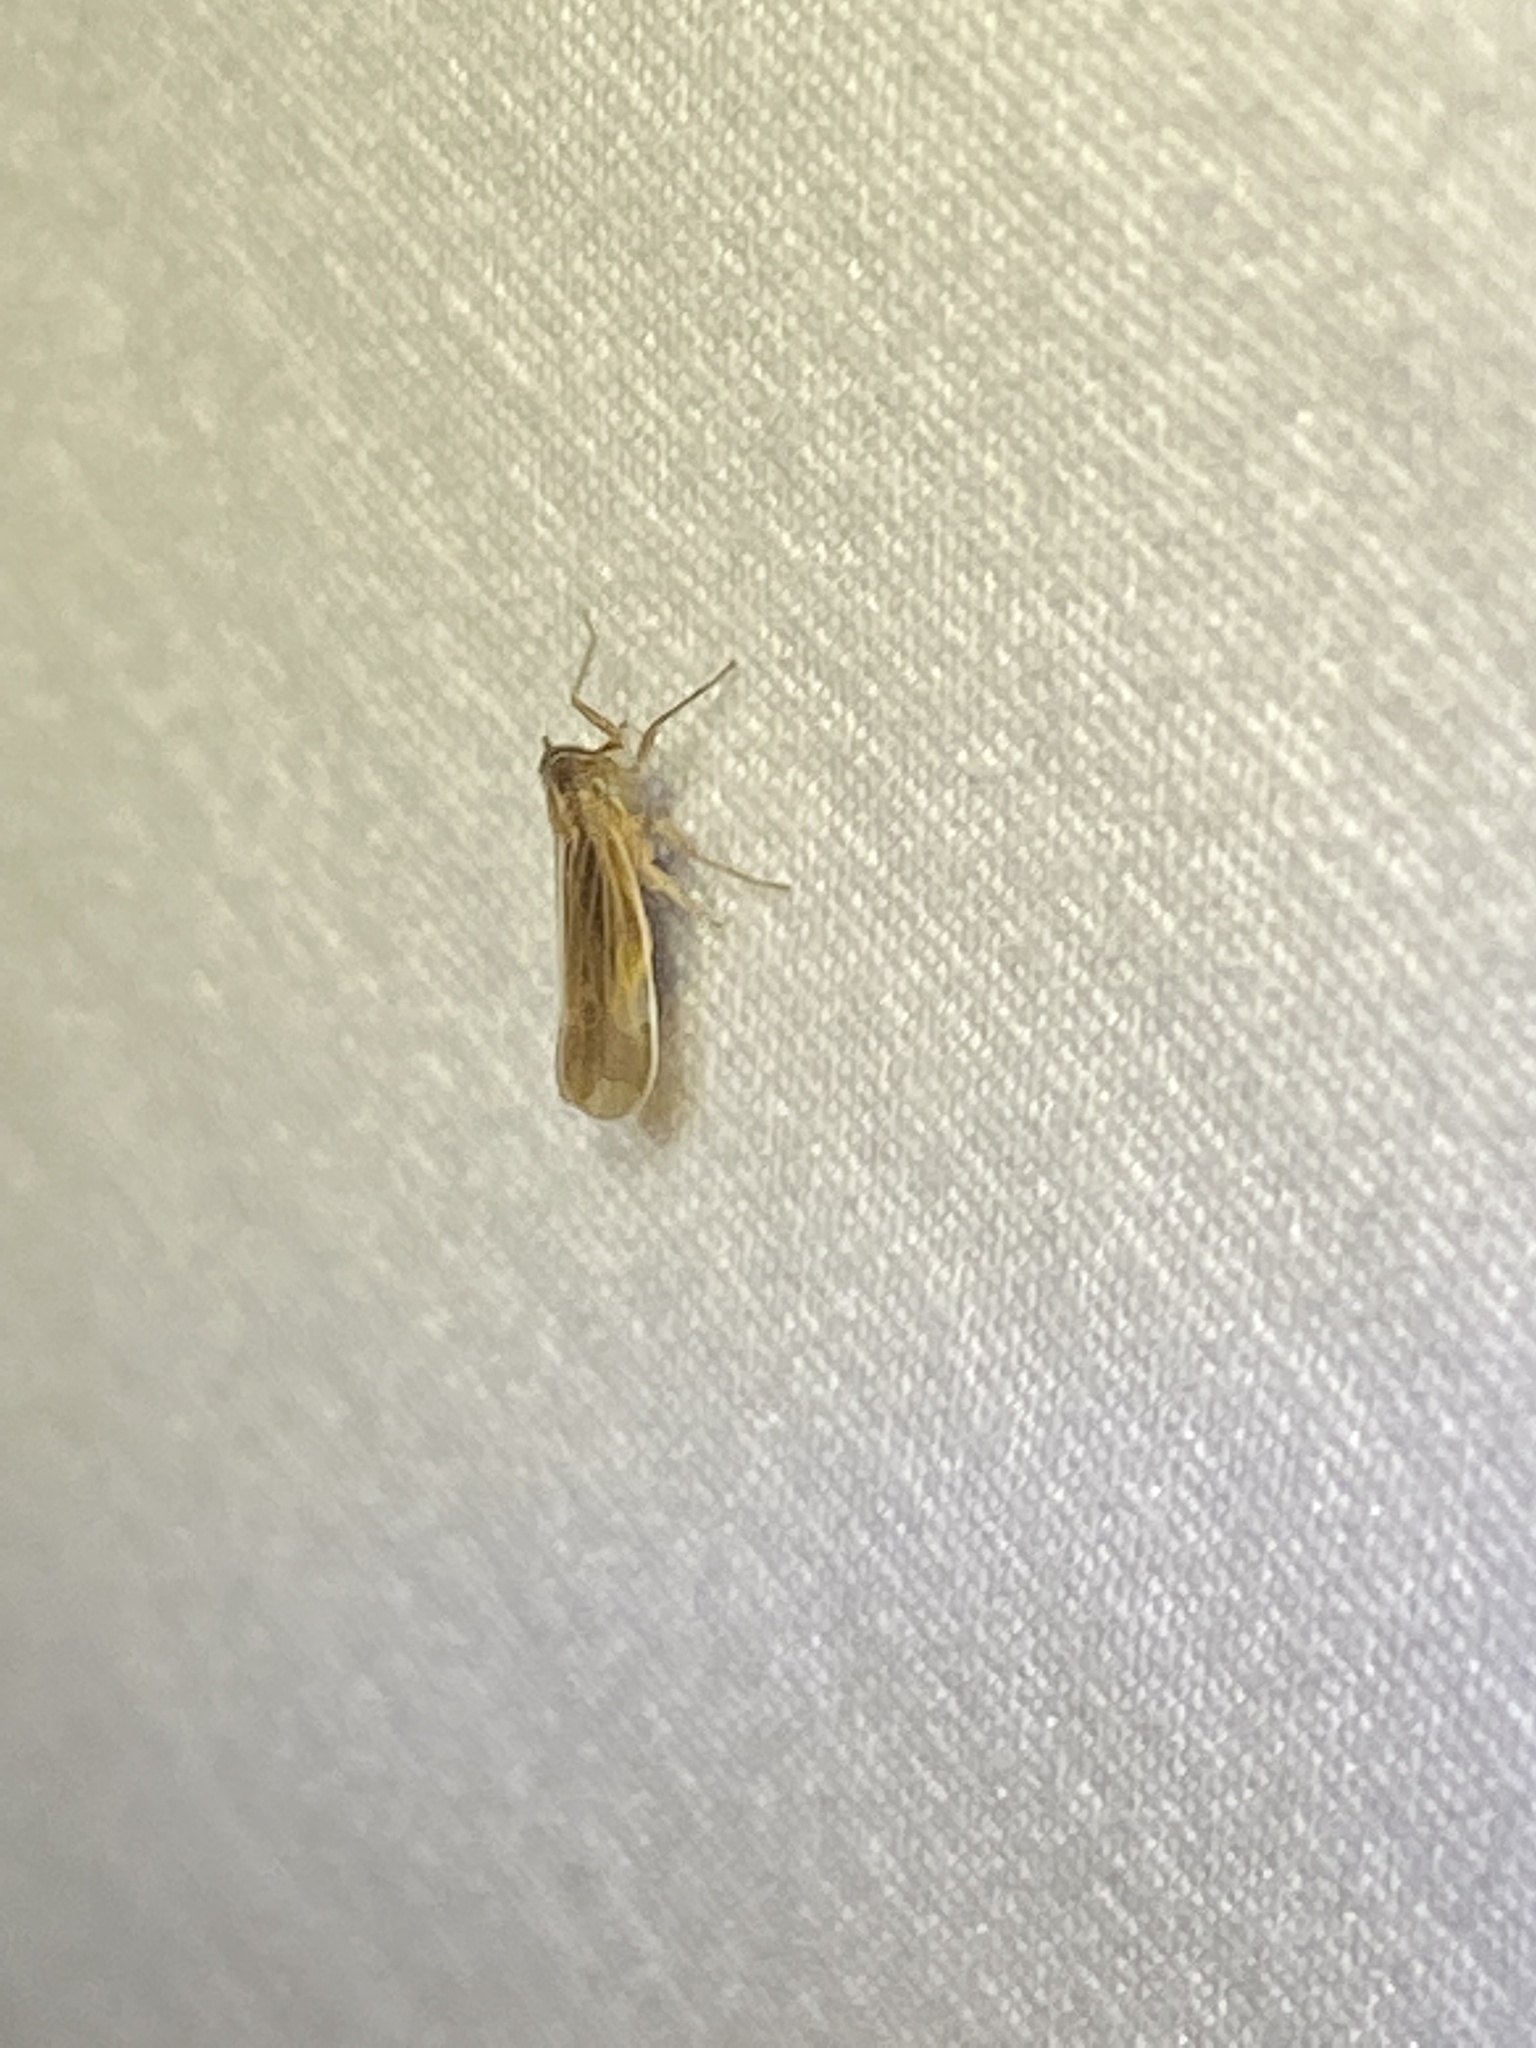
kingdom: Animalia
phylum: Arthropoda
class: Insecta
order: Hemiptera
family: Delphacidae
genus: Nothodelphax
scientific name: Nothodelphax slossonae
